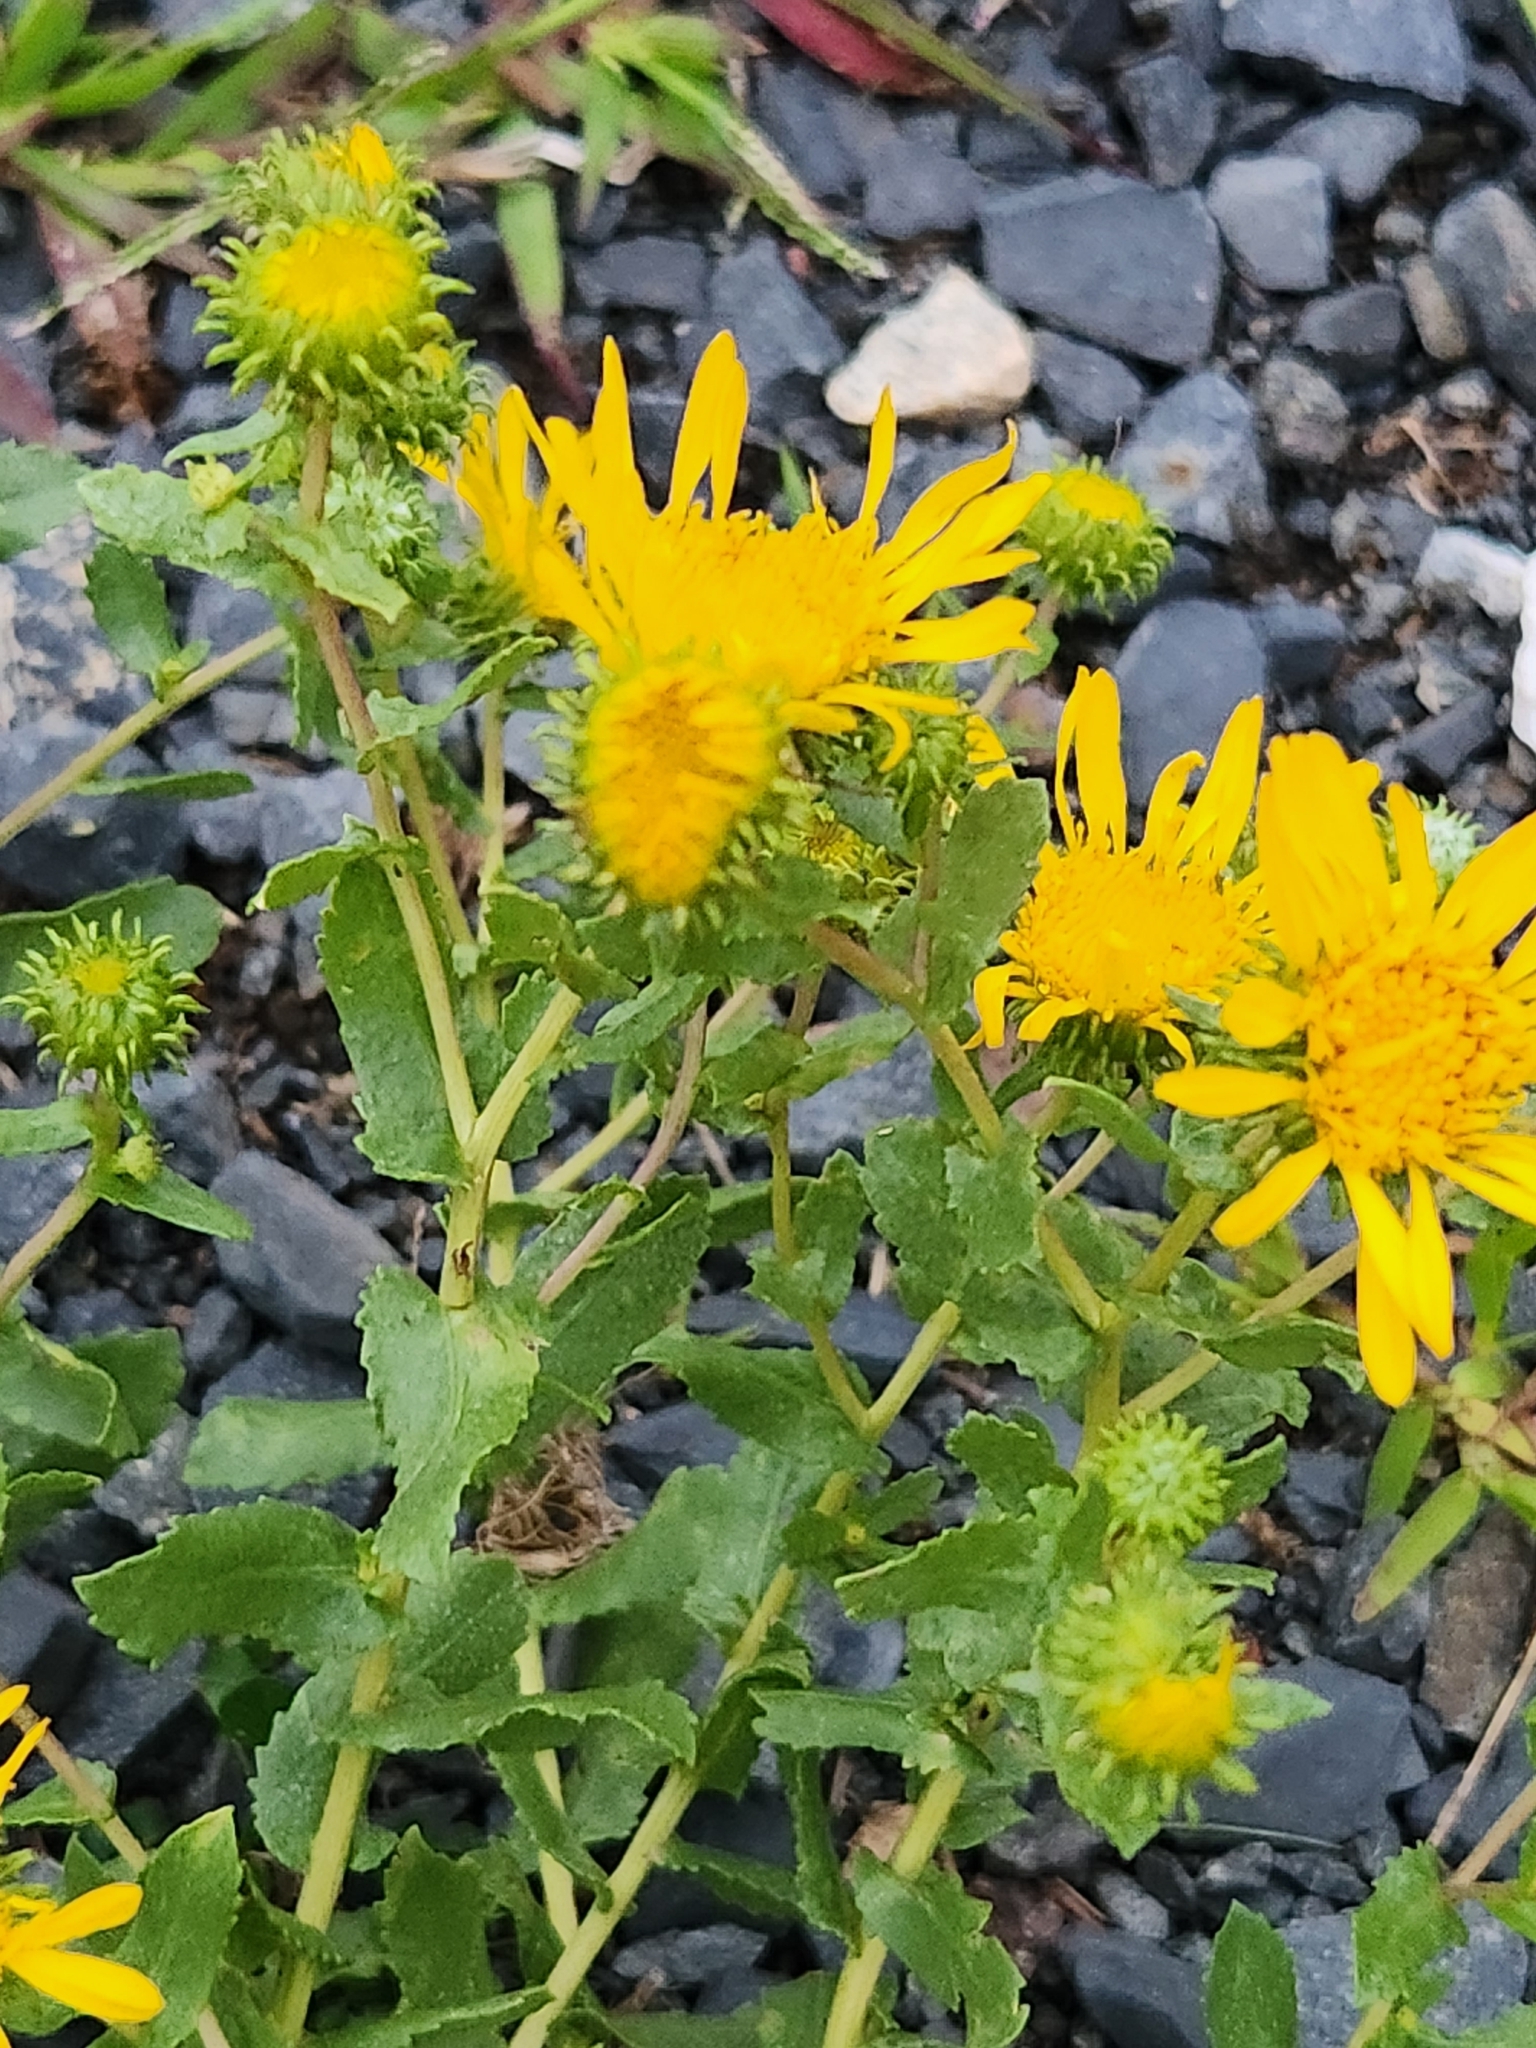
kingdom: Plantae
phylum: Tracheophyta
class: Magnoliopsida
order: Asterales
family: Asteraceae
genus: Grindelia
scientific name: Grindelia squarrosa
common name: Curly-cup gumweed
